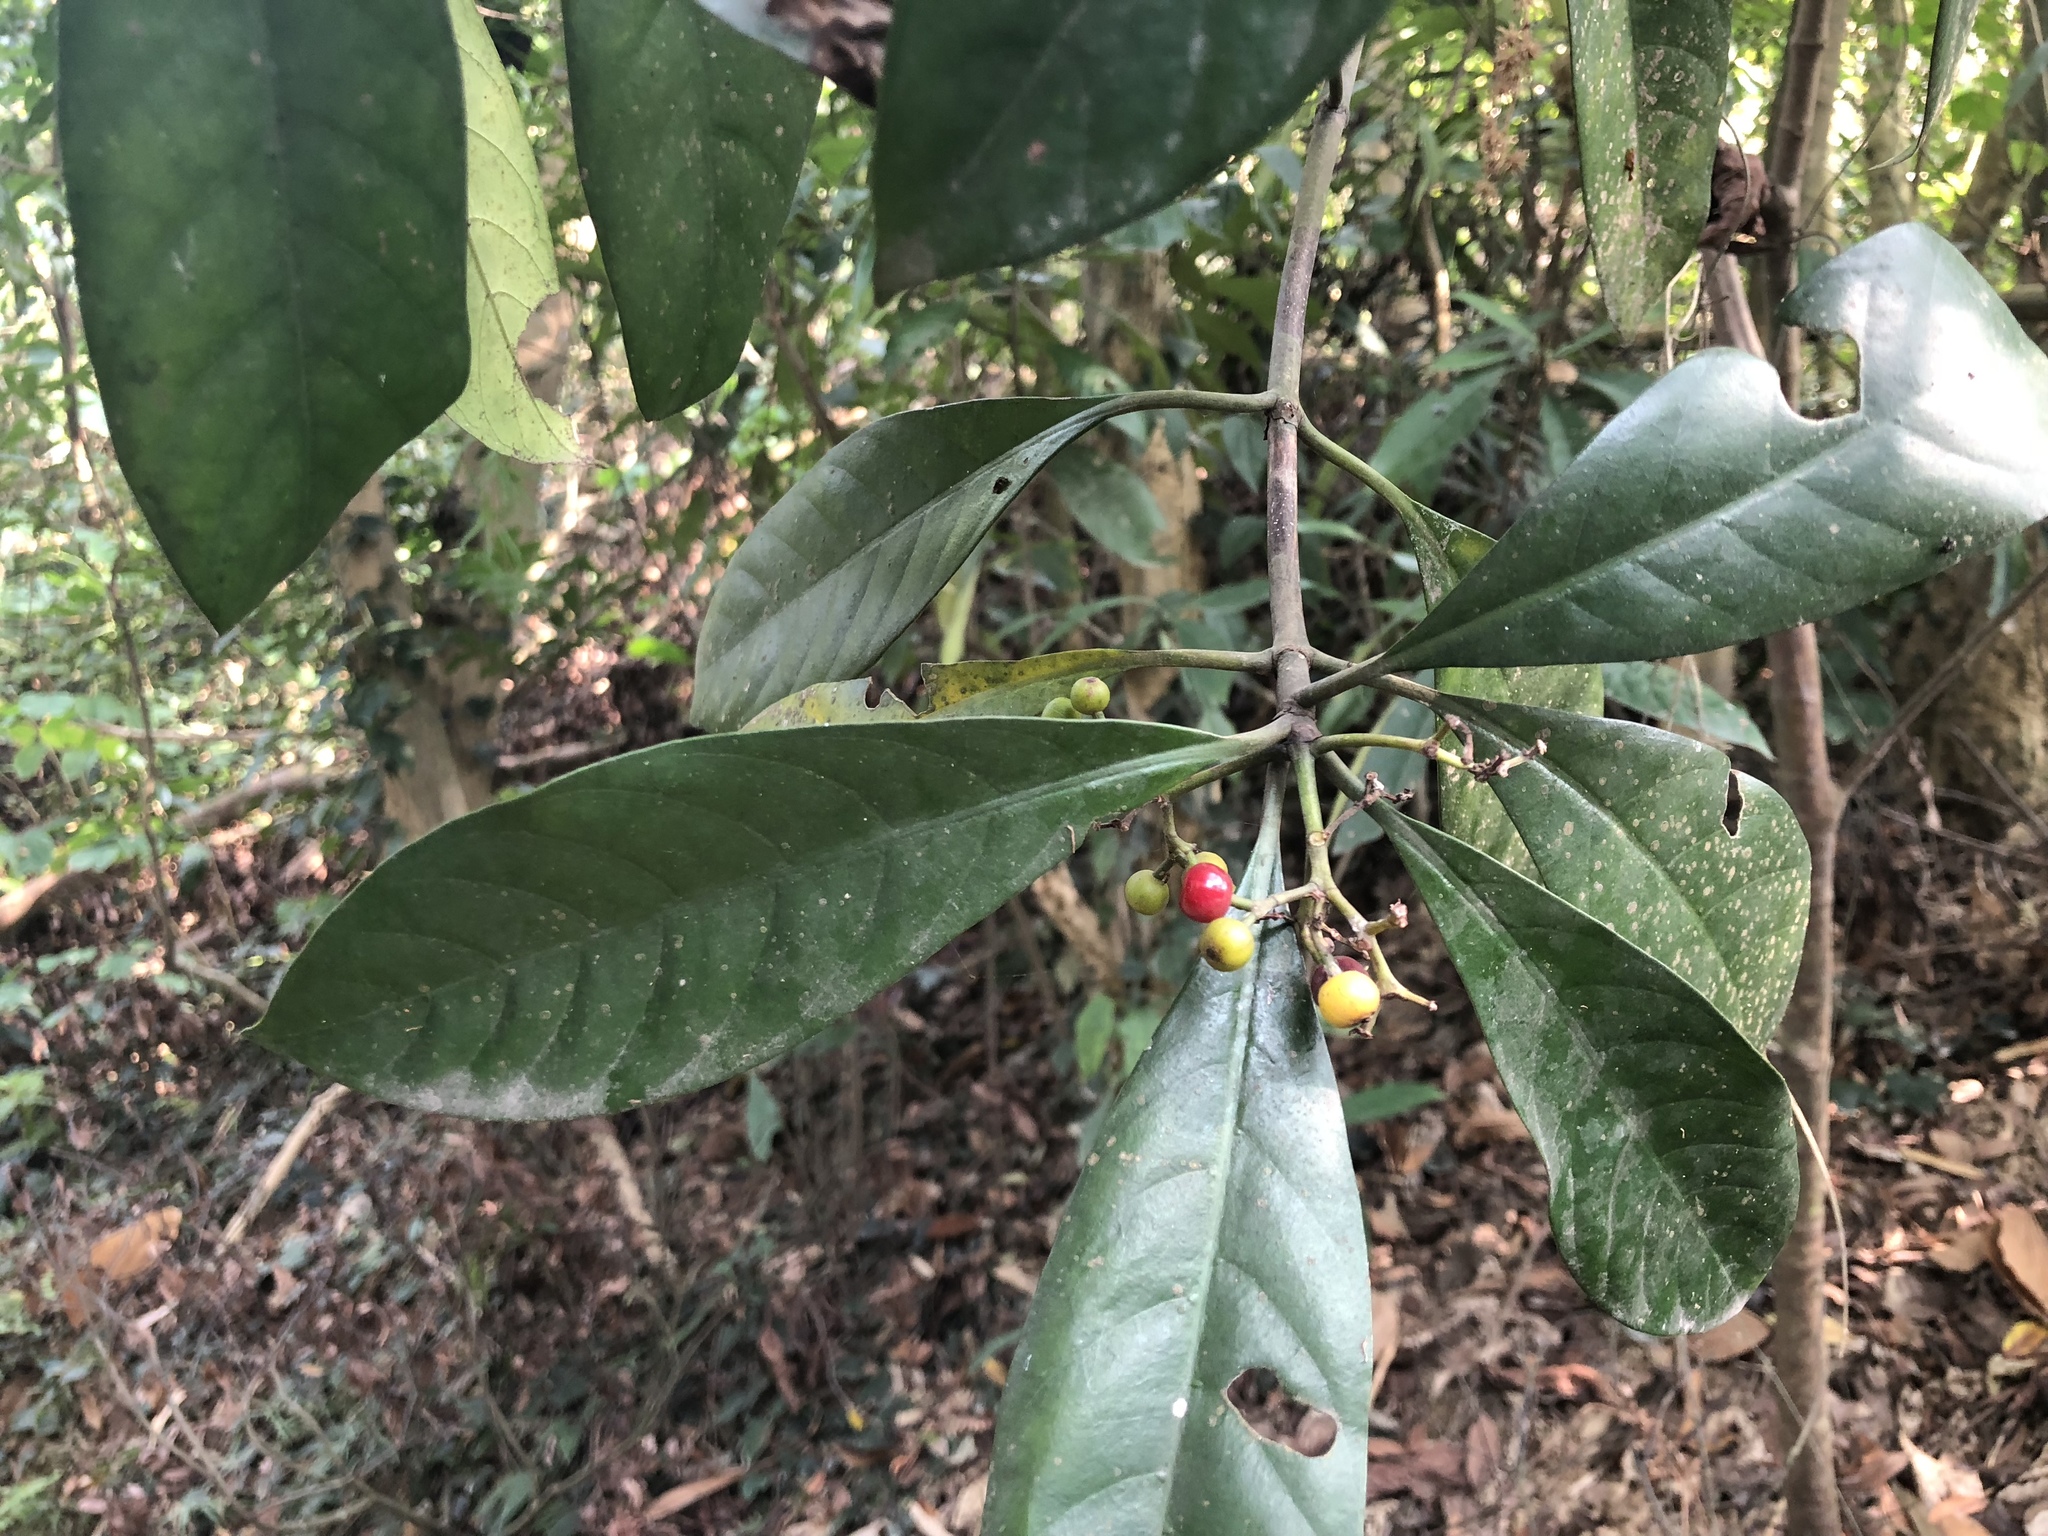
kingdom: Plantae
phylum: Tracheophyta
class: Magnoliopsida
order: Gentianales
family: Rubiaceae
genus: Psychotria
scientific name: Psychotria asiatica
